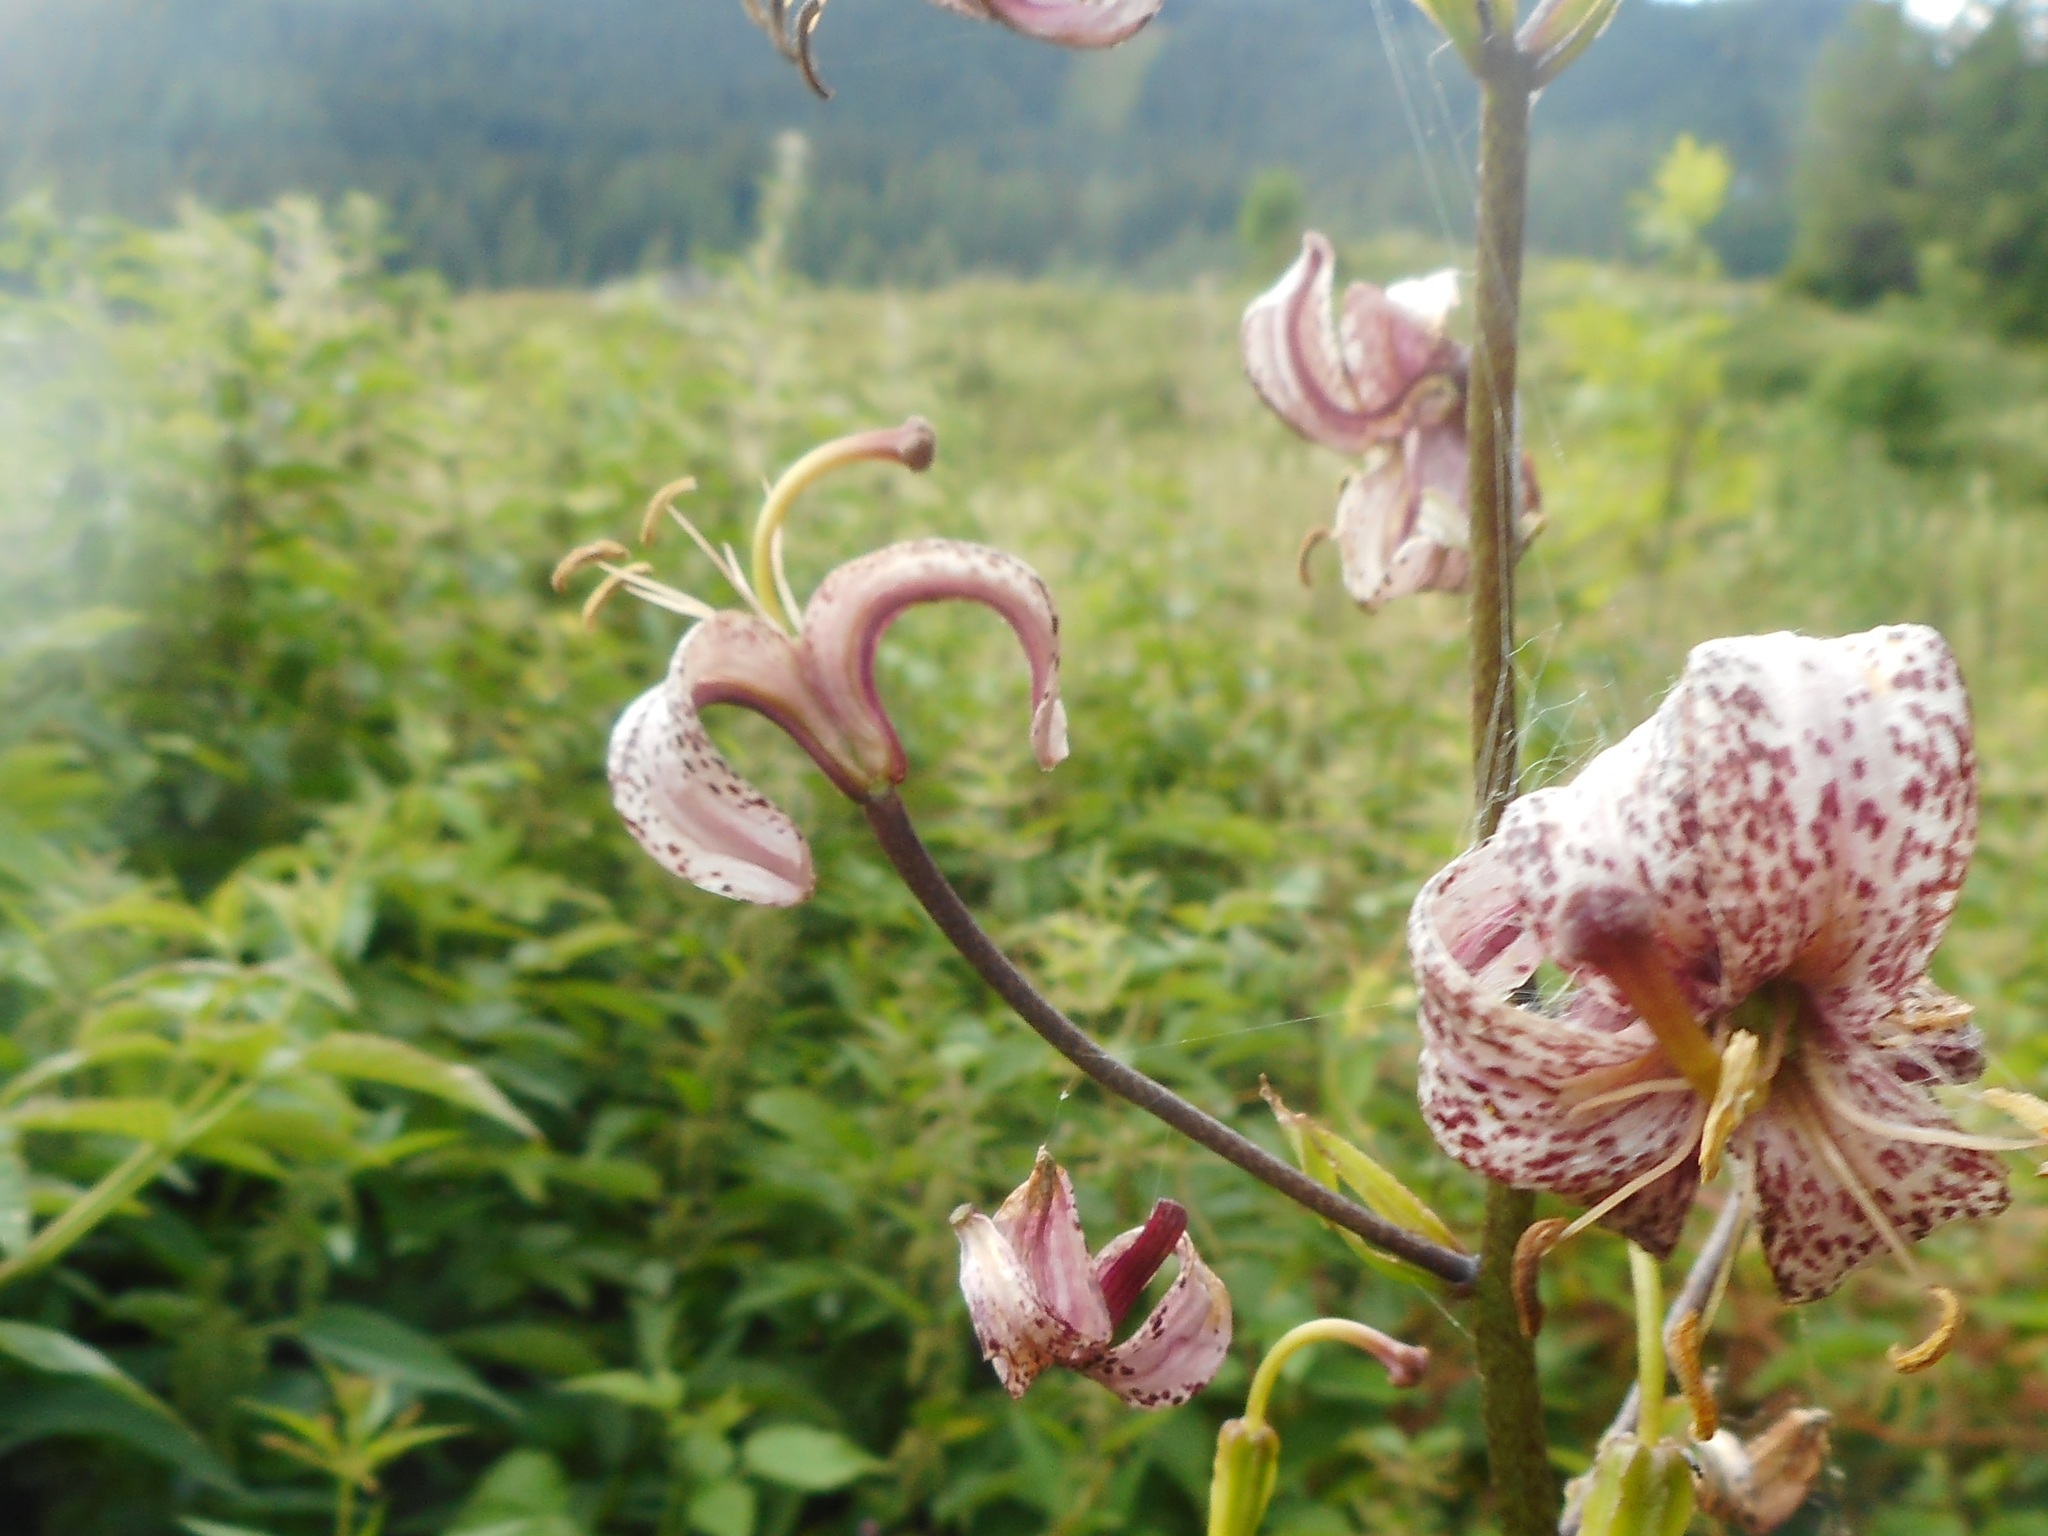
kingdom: Plantae
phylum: Tracheophyta
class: Liliopsida
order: Liliales
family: Liliaceae
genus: Lilium
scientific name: Lilium martagon
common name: Martagon lily
